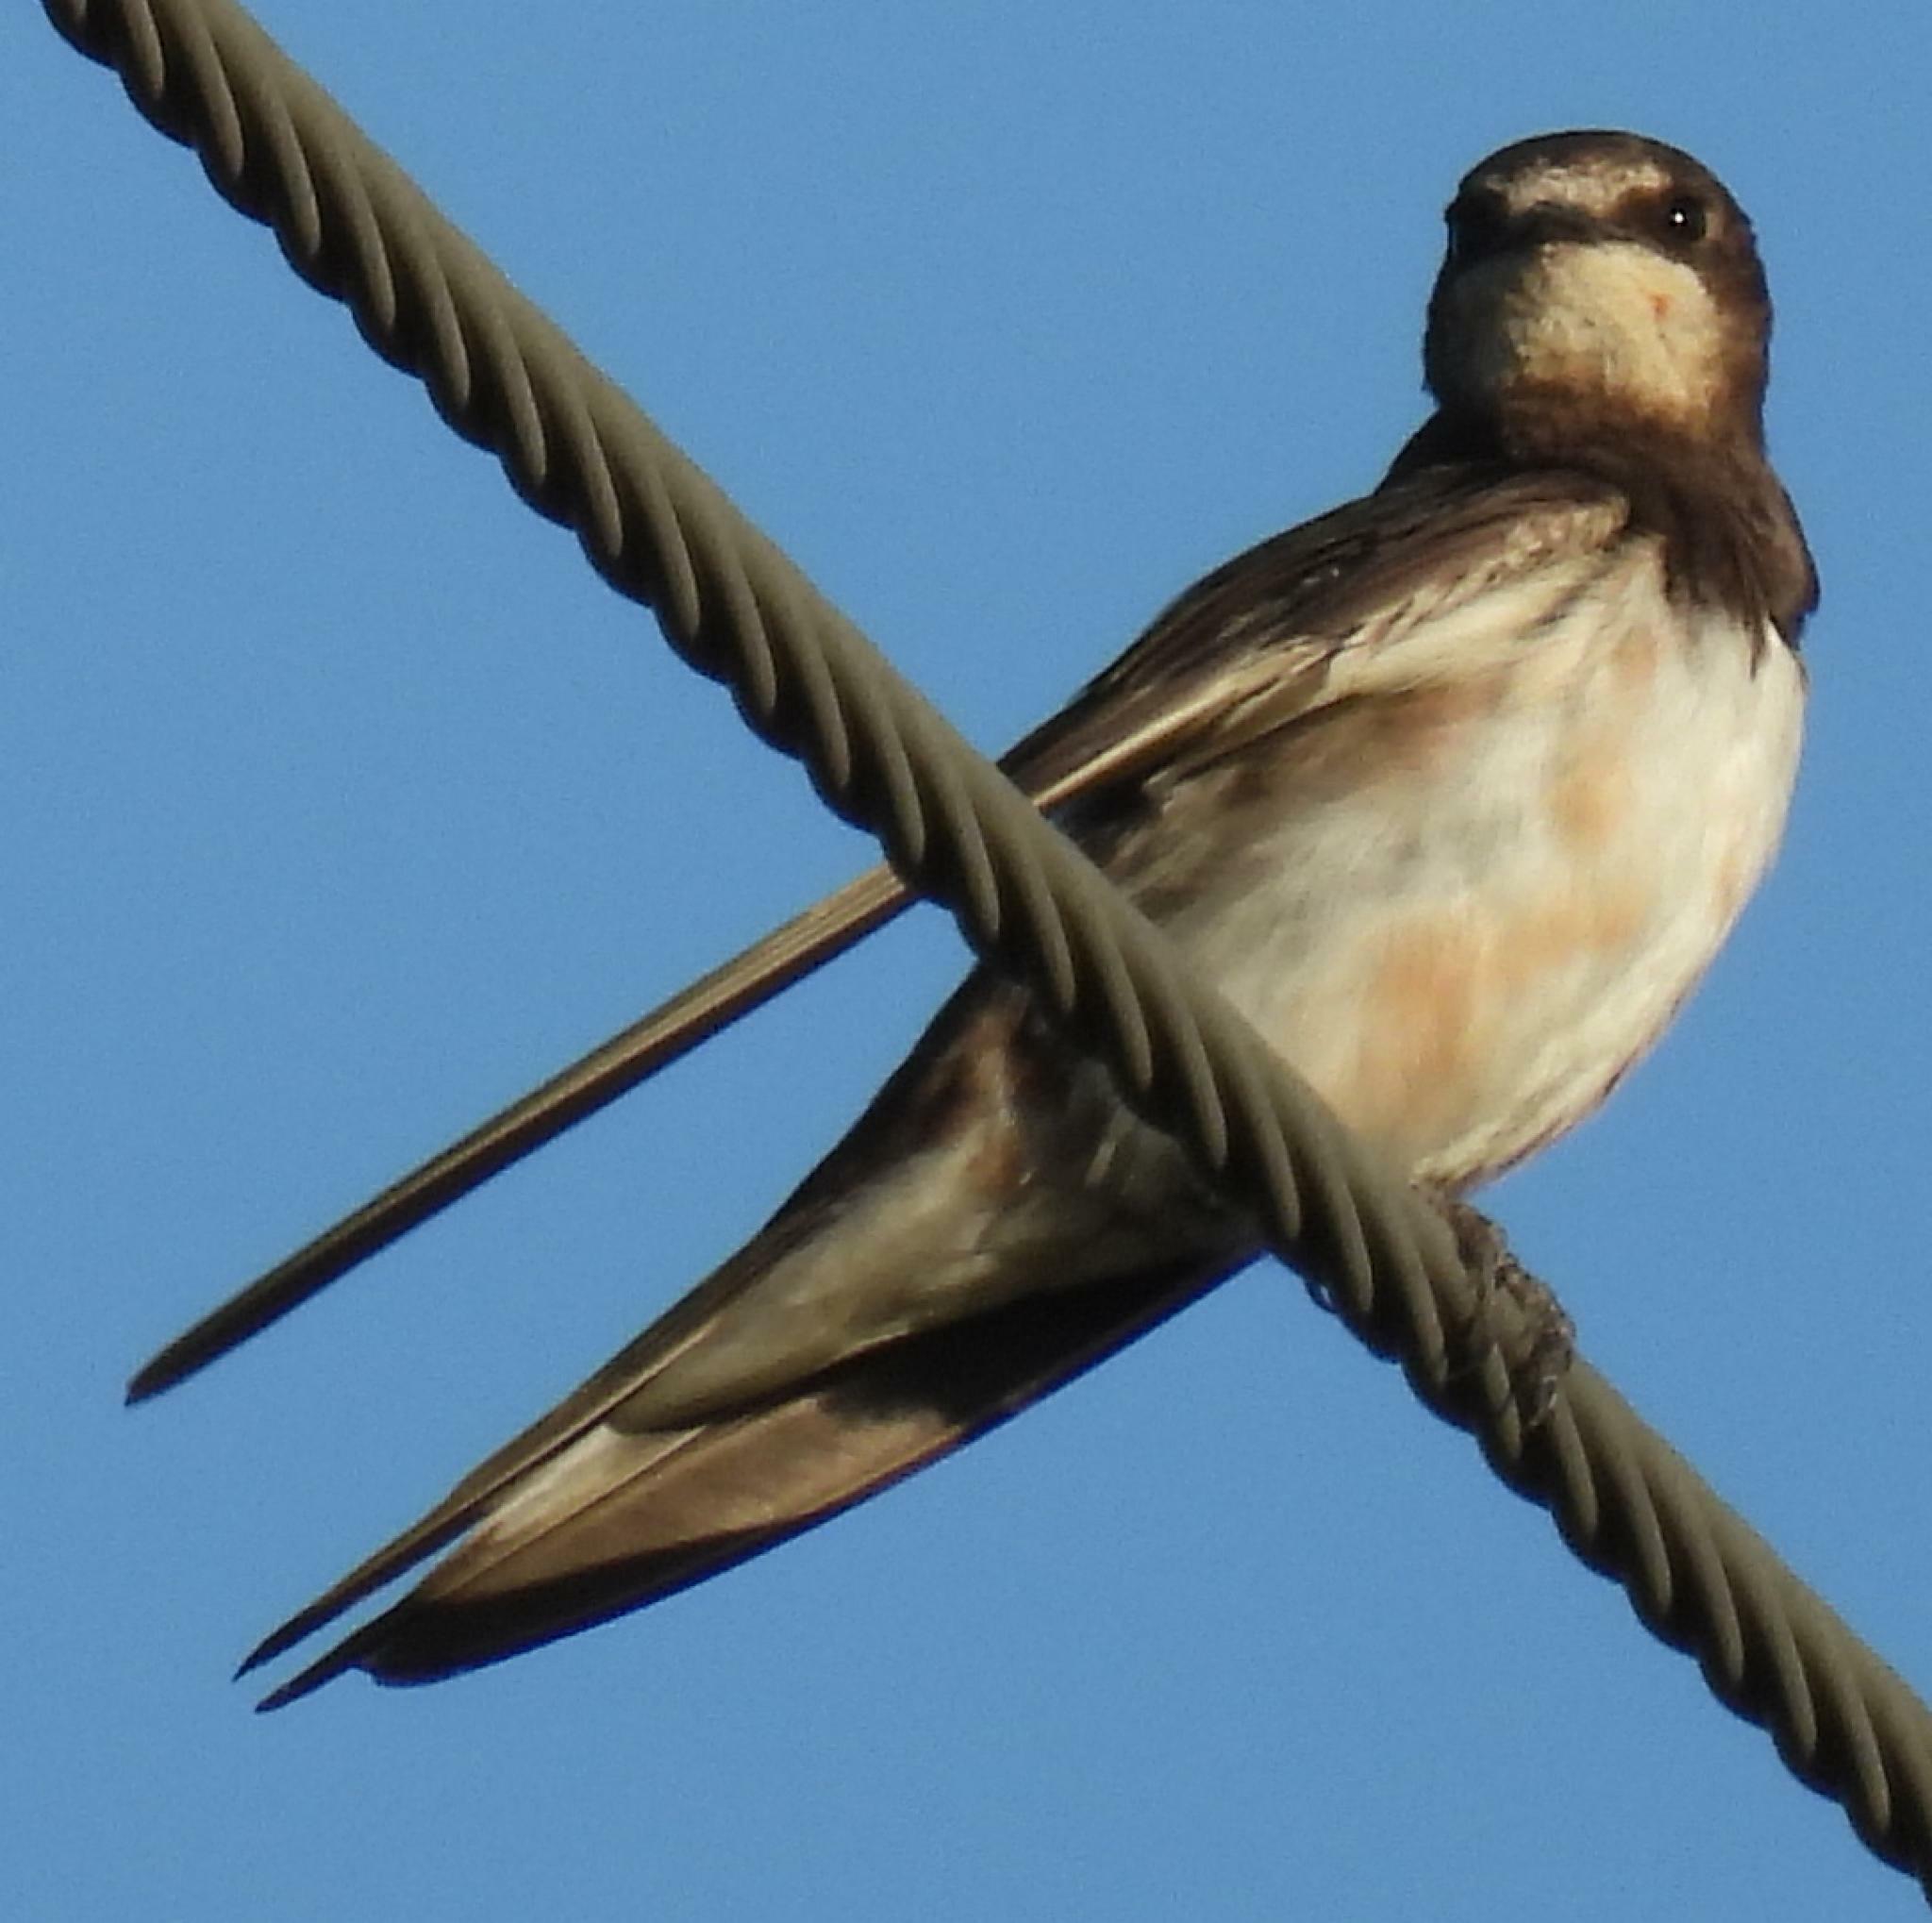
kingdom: Animalia
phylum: Chordata
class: Aves
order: Passeriformes
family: Hirundinidae
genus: Hirundo
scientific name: Hirundo rustica
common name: Barn swallow
